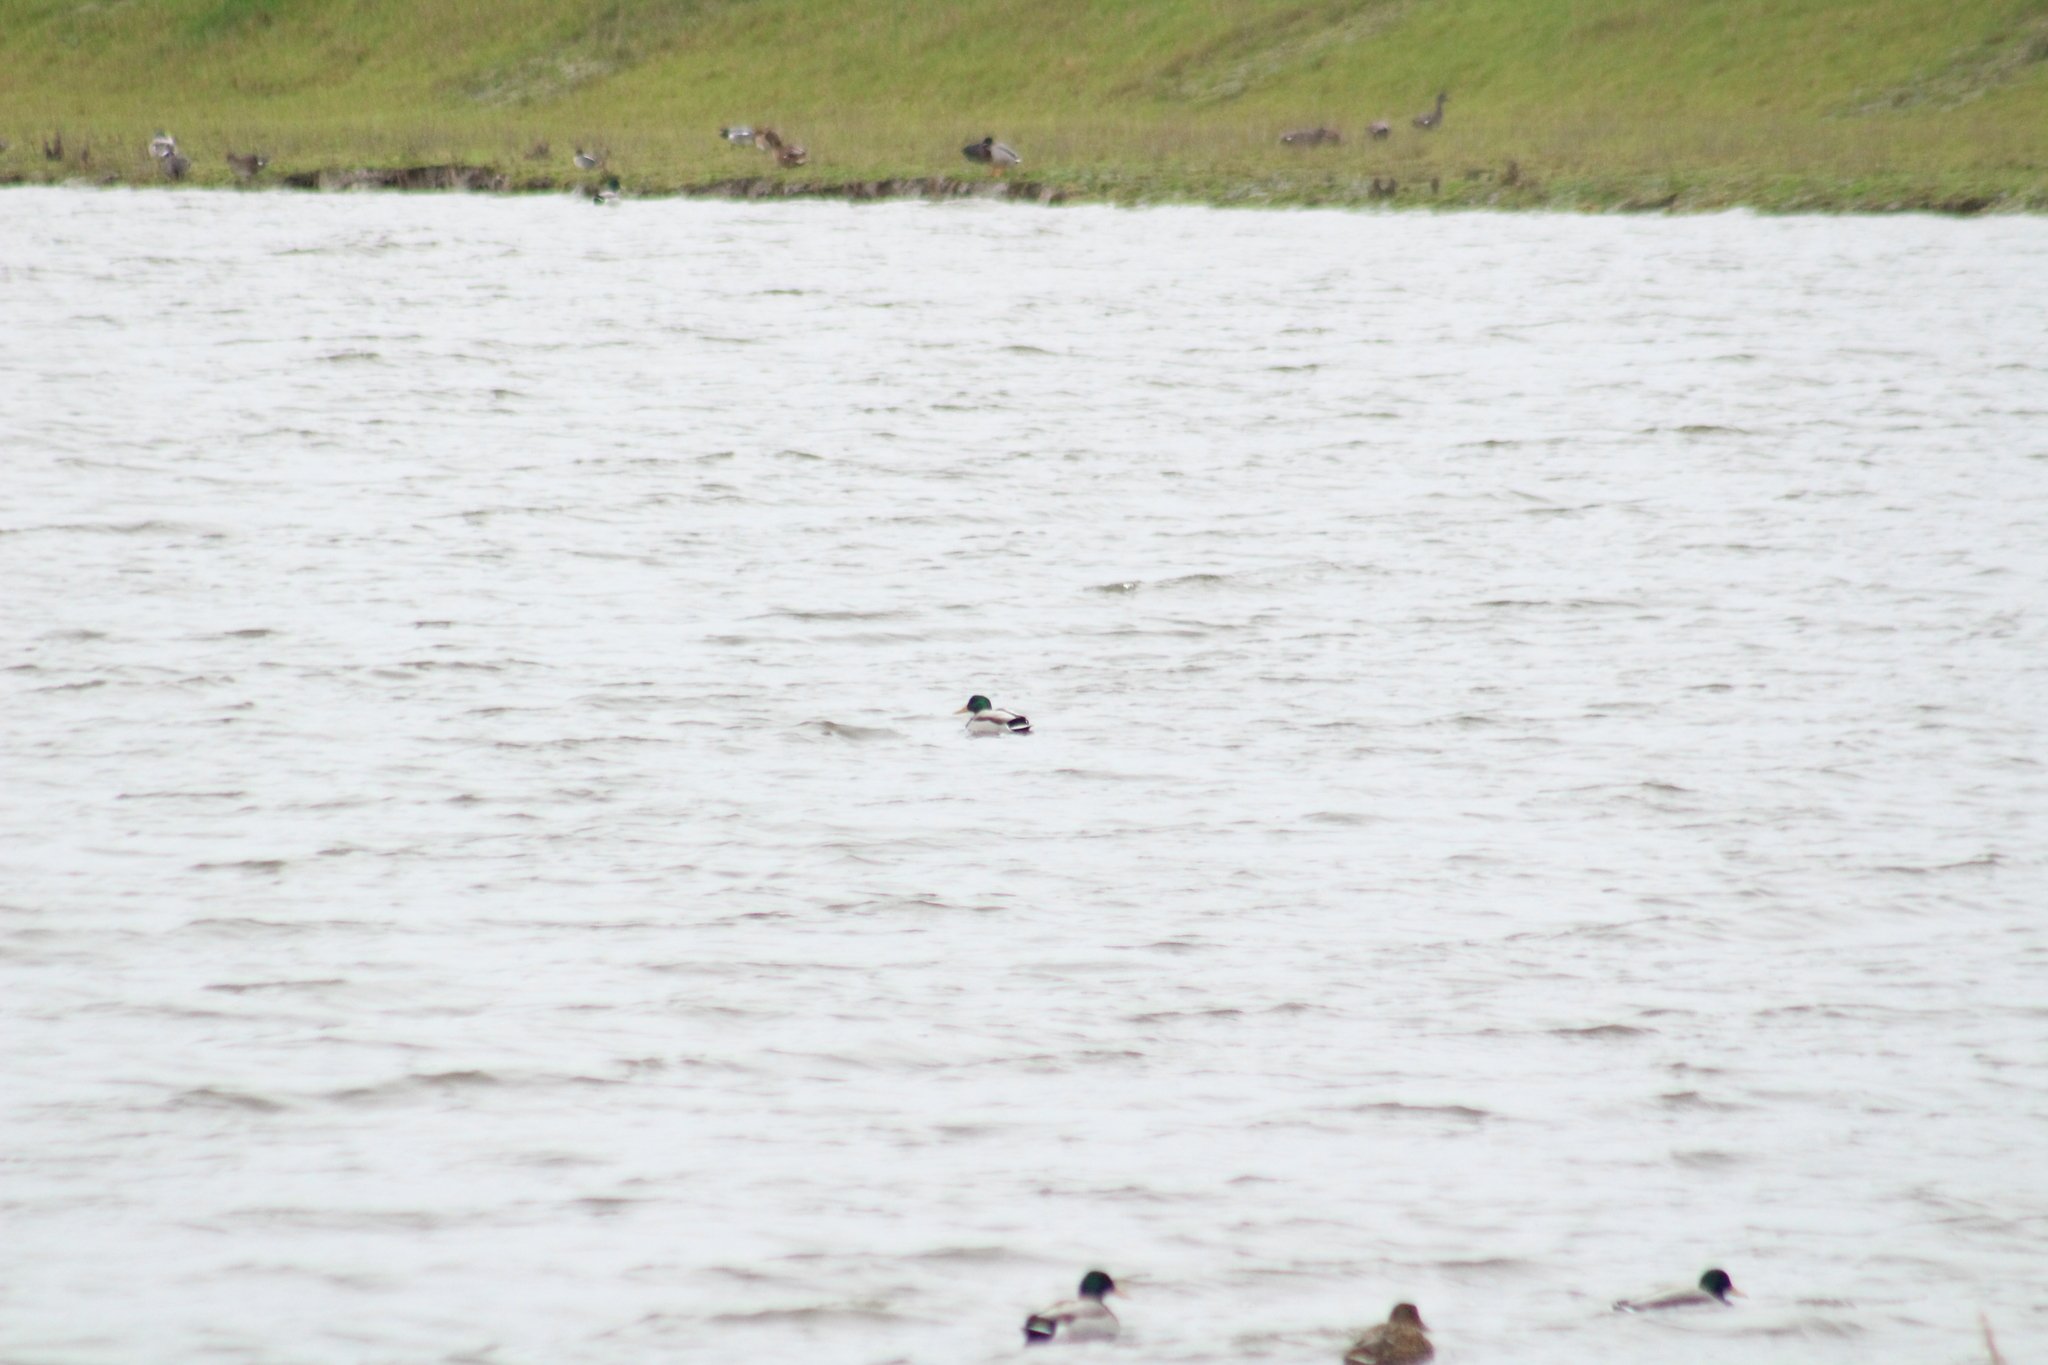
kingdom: Animalia
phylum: Chordata
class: Aves
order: Anseriformes
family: Anatidae
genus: Anas
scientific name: Anas platyrhynchos
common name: Mallard
